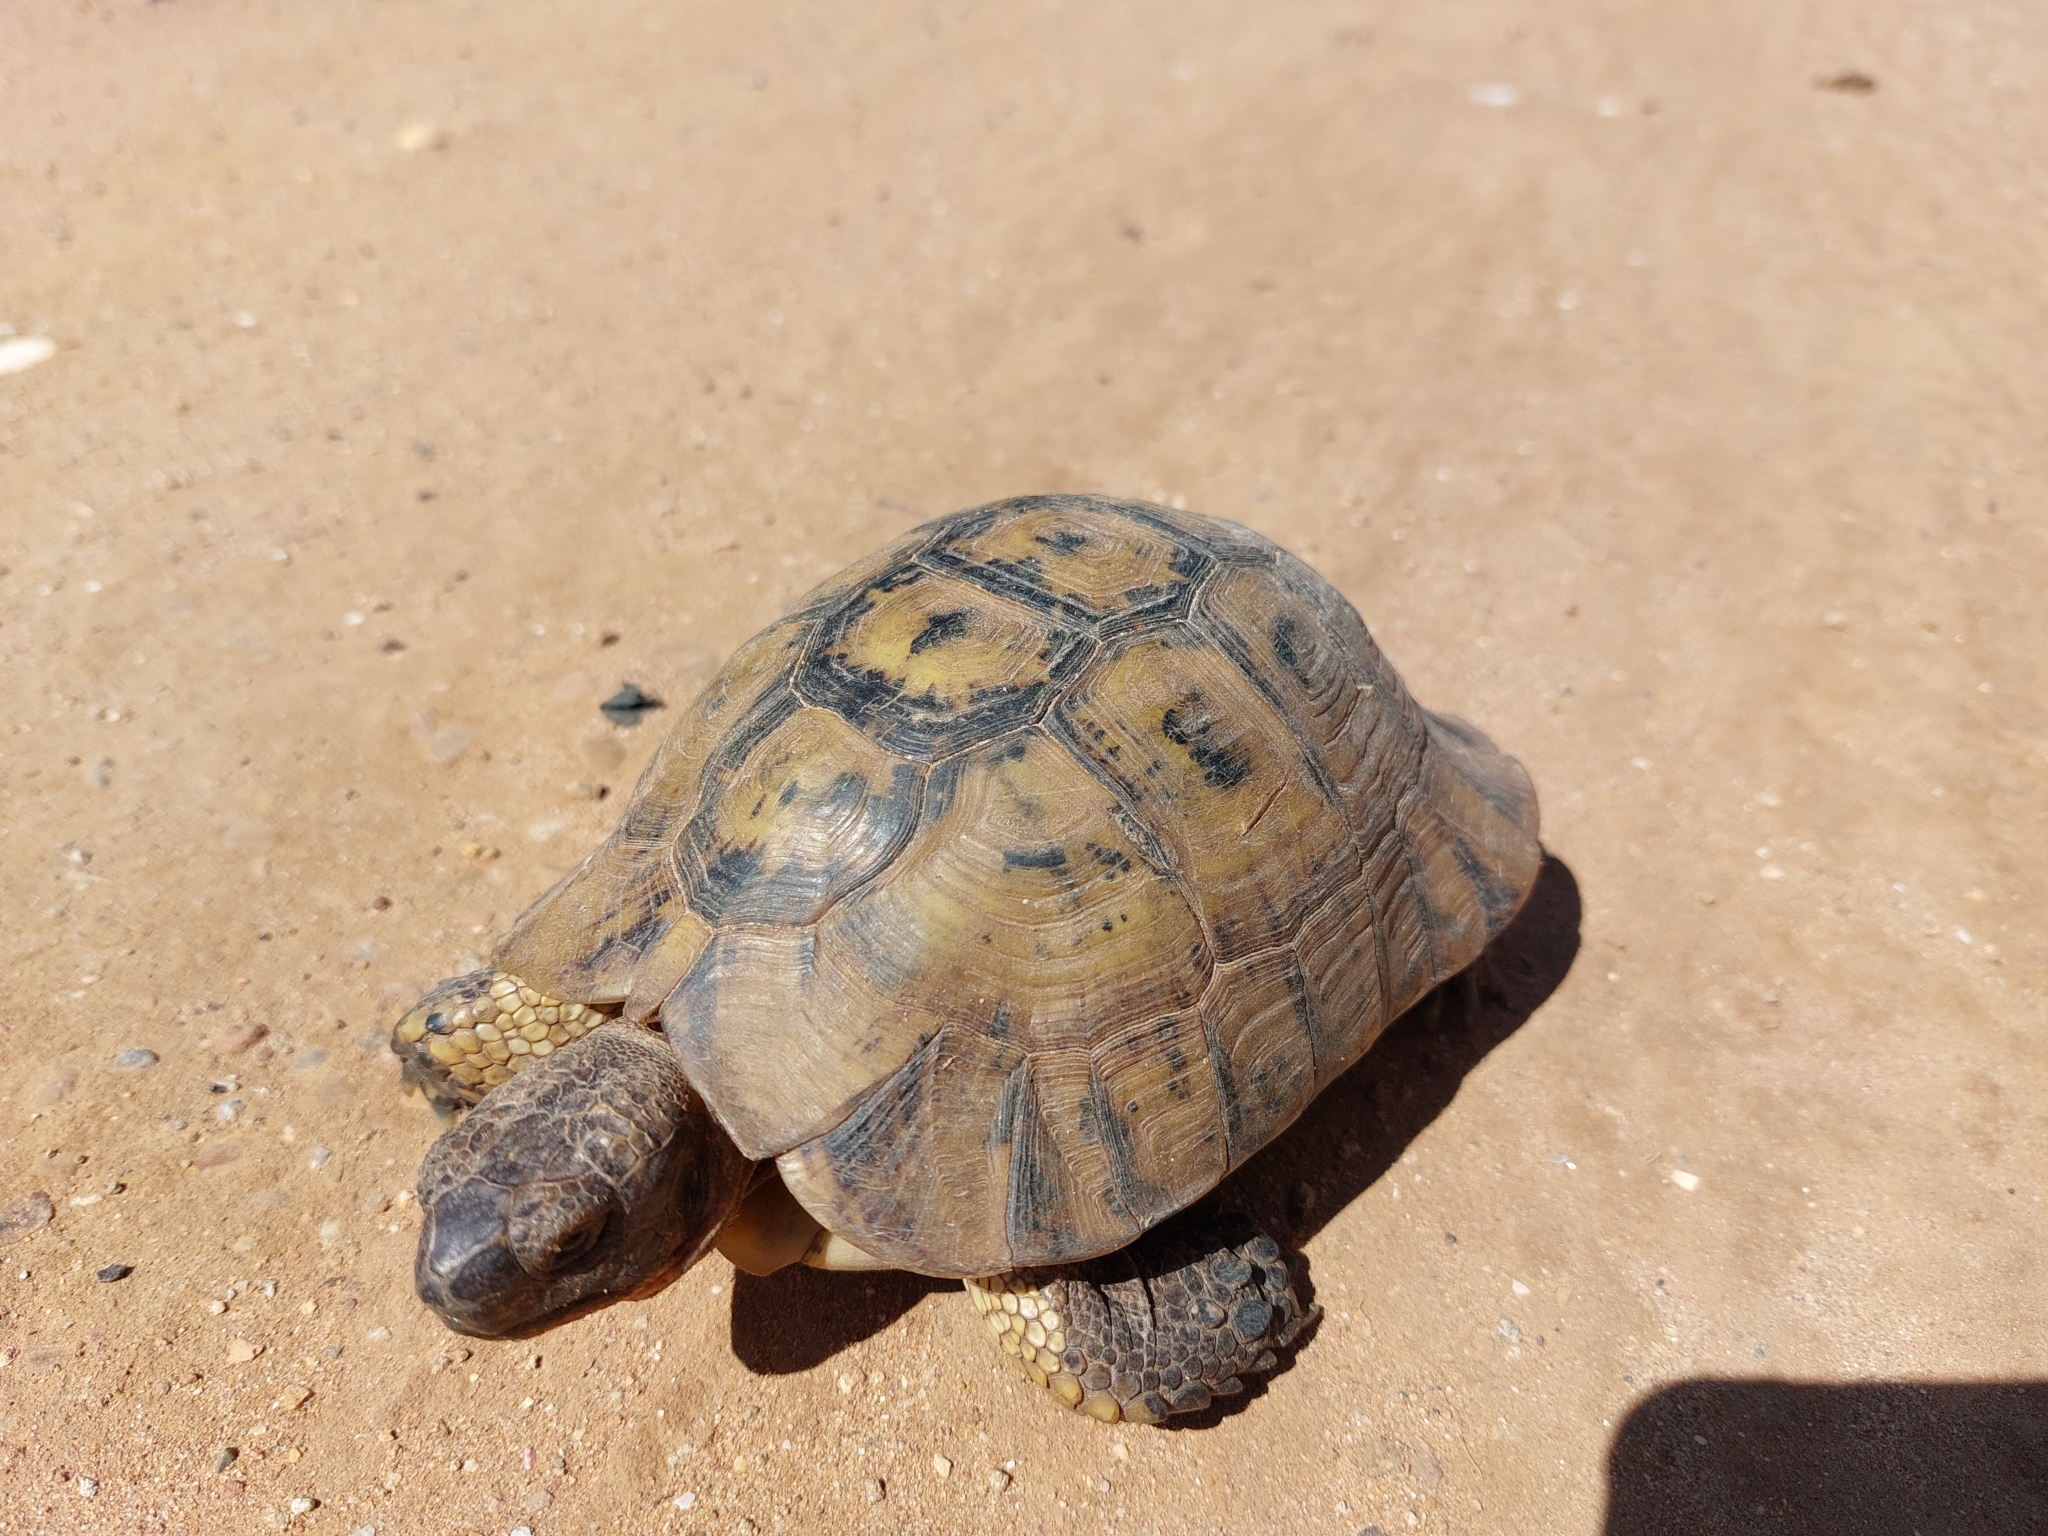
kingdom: Animalia
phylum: Chordata
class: Testudines
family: Testudinidae
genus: Testudo
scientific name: Testudo graeca
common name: Common tortoise
